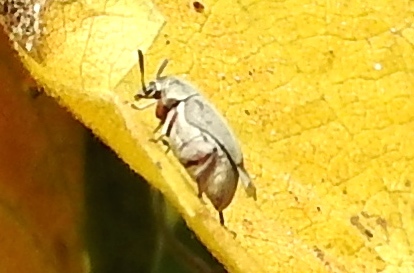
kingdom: Animalia
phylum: Arthropoda
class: Insecta
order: Coleoptera
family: Bruchidae
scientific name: Bruchidae
